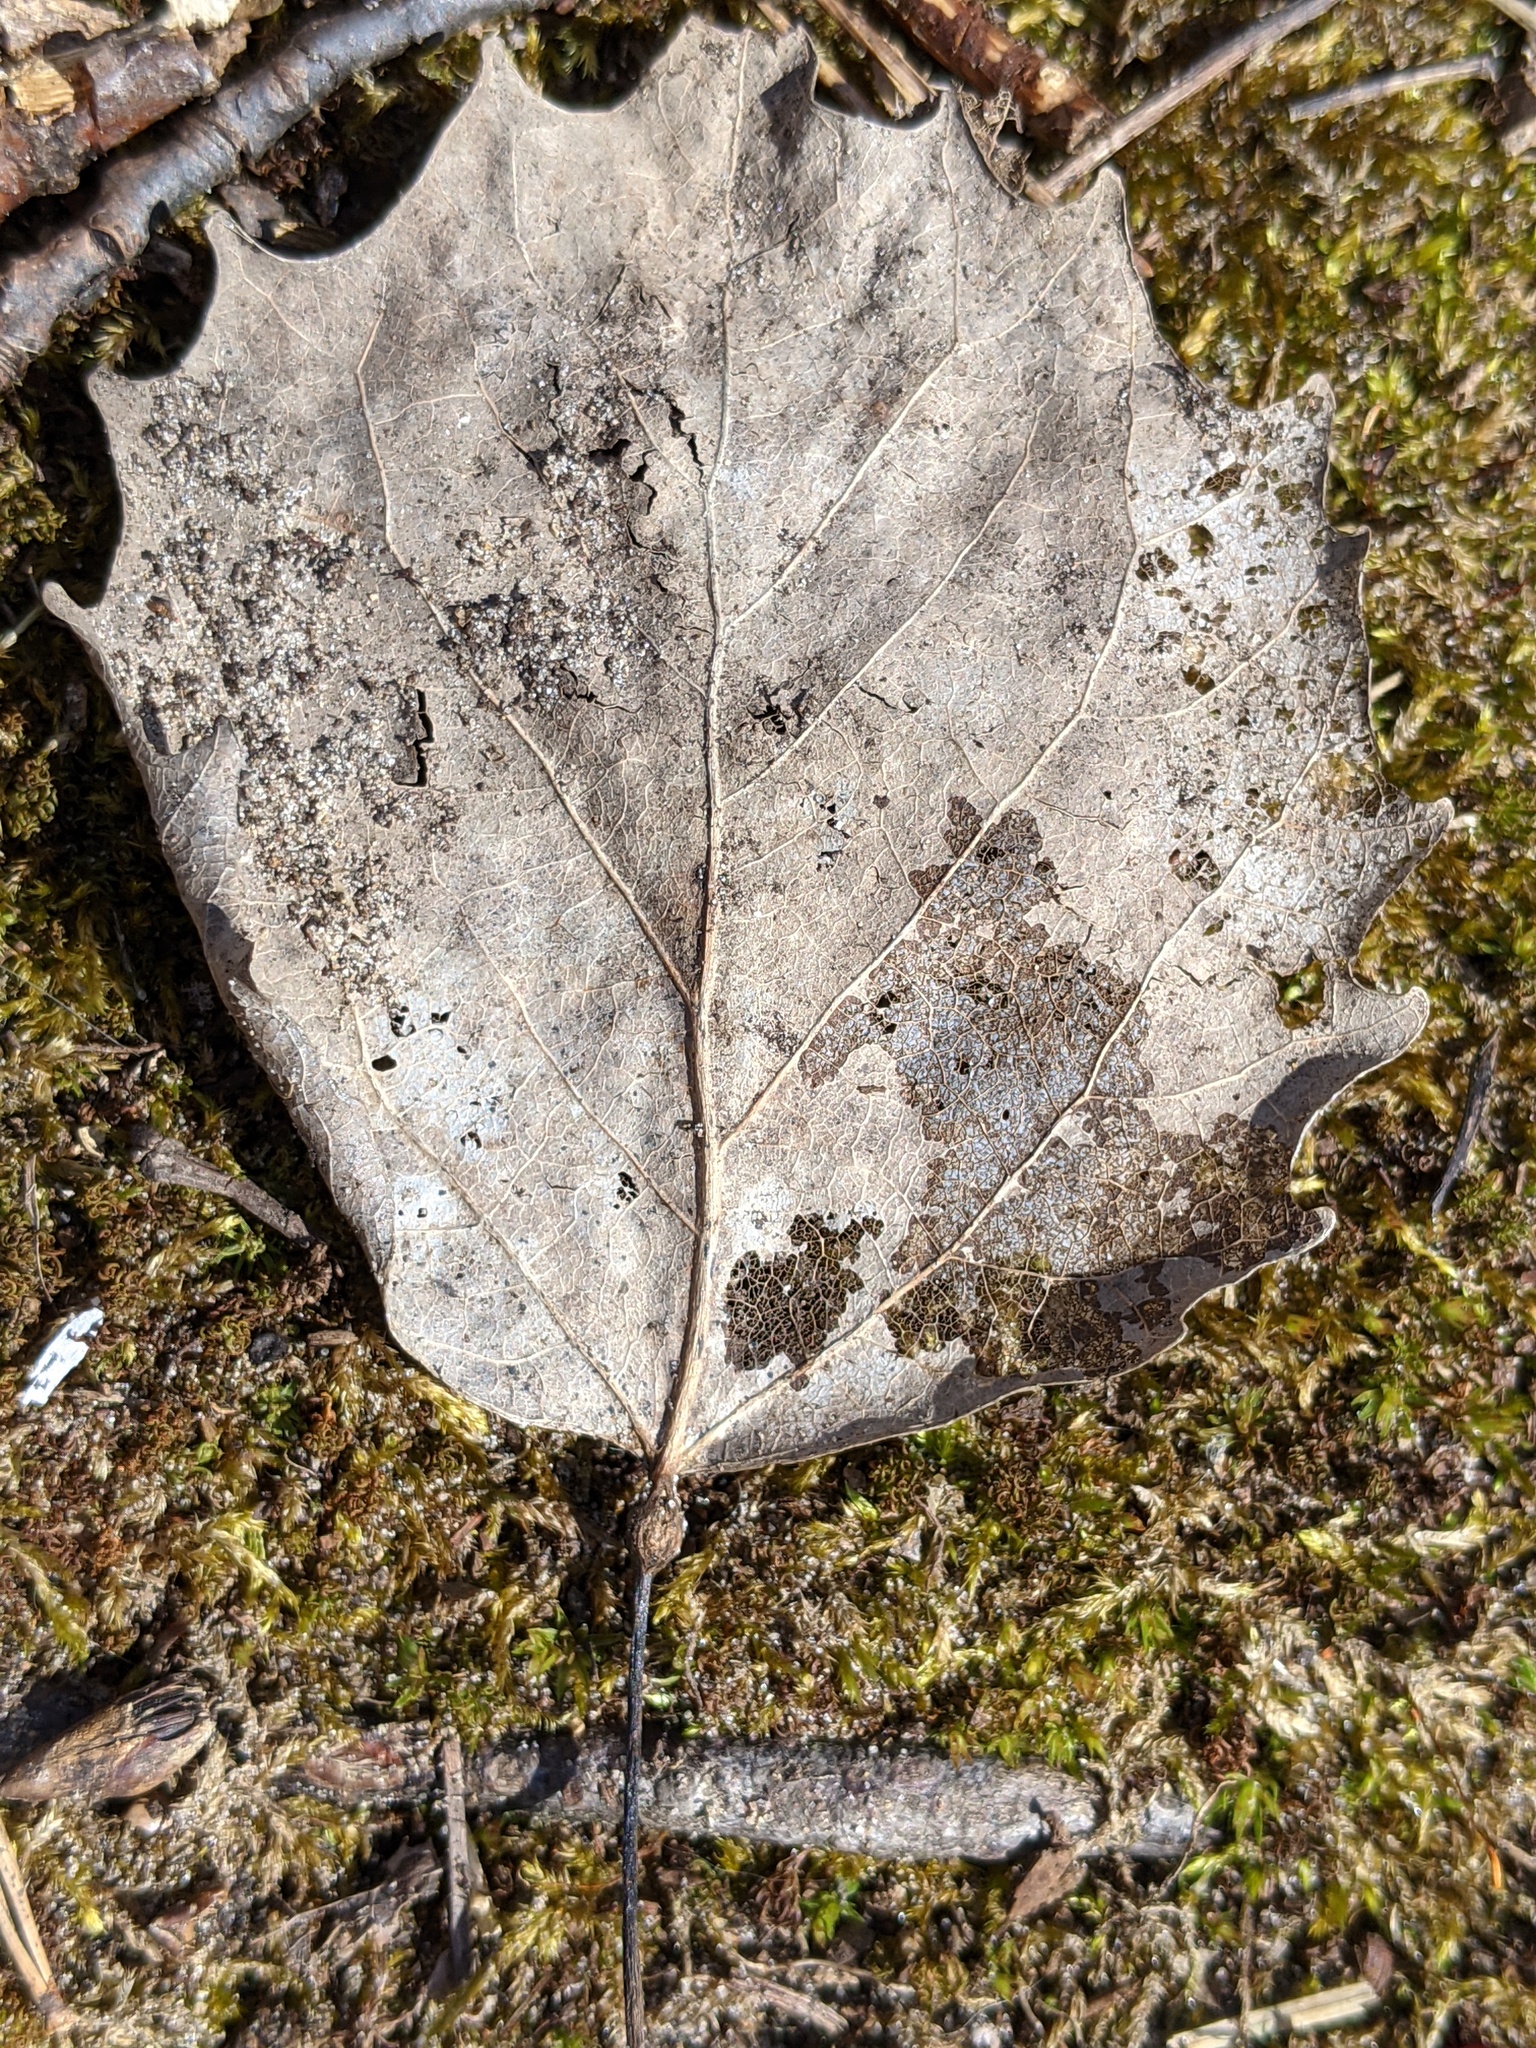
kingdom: Plantae
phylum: Tracheophyta
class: Magnoliopsida
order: Malpighiales
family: Salicaceae
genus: Populus
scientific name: Populus grandidentata
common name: Bigtooth aspen
